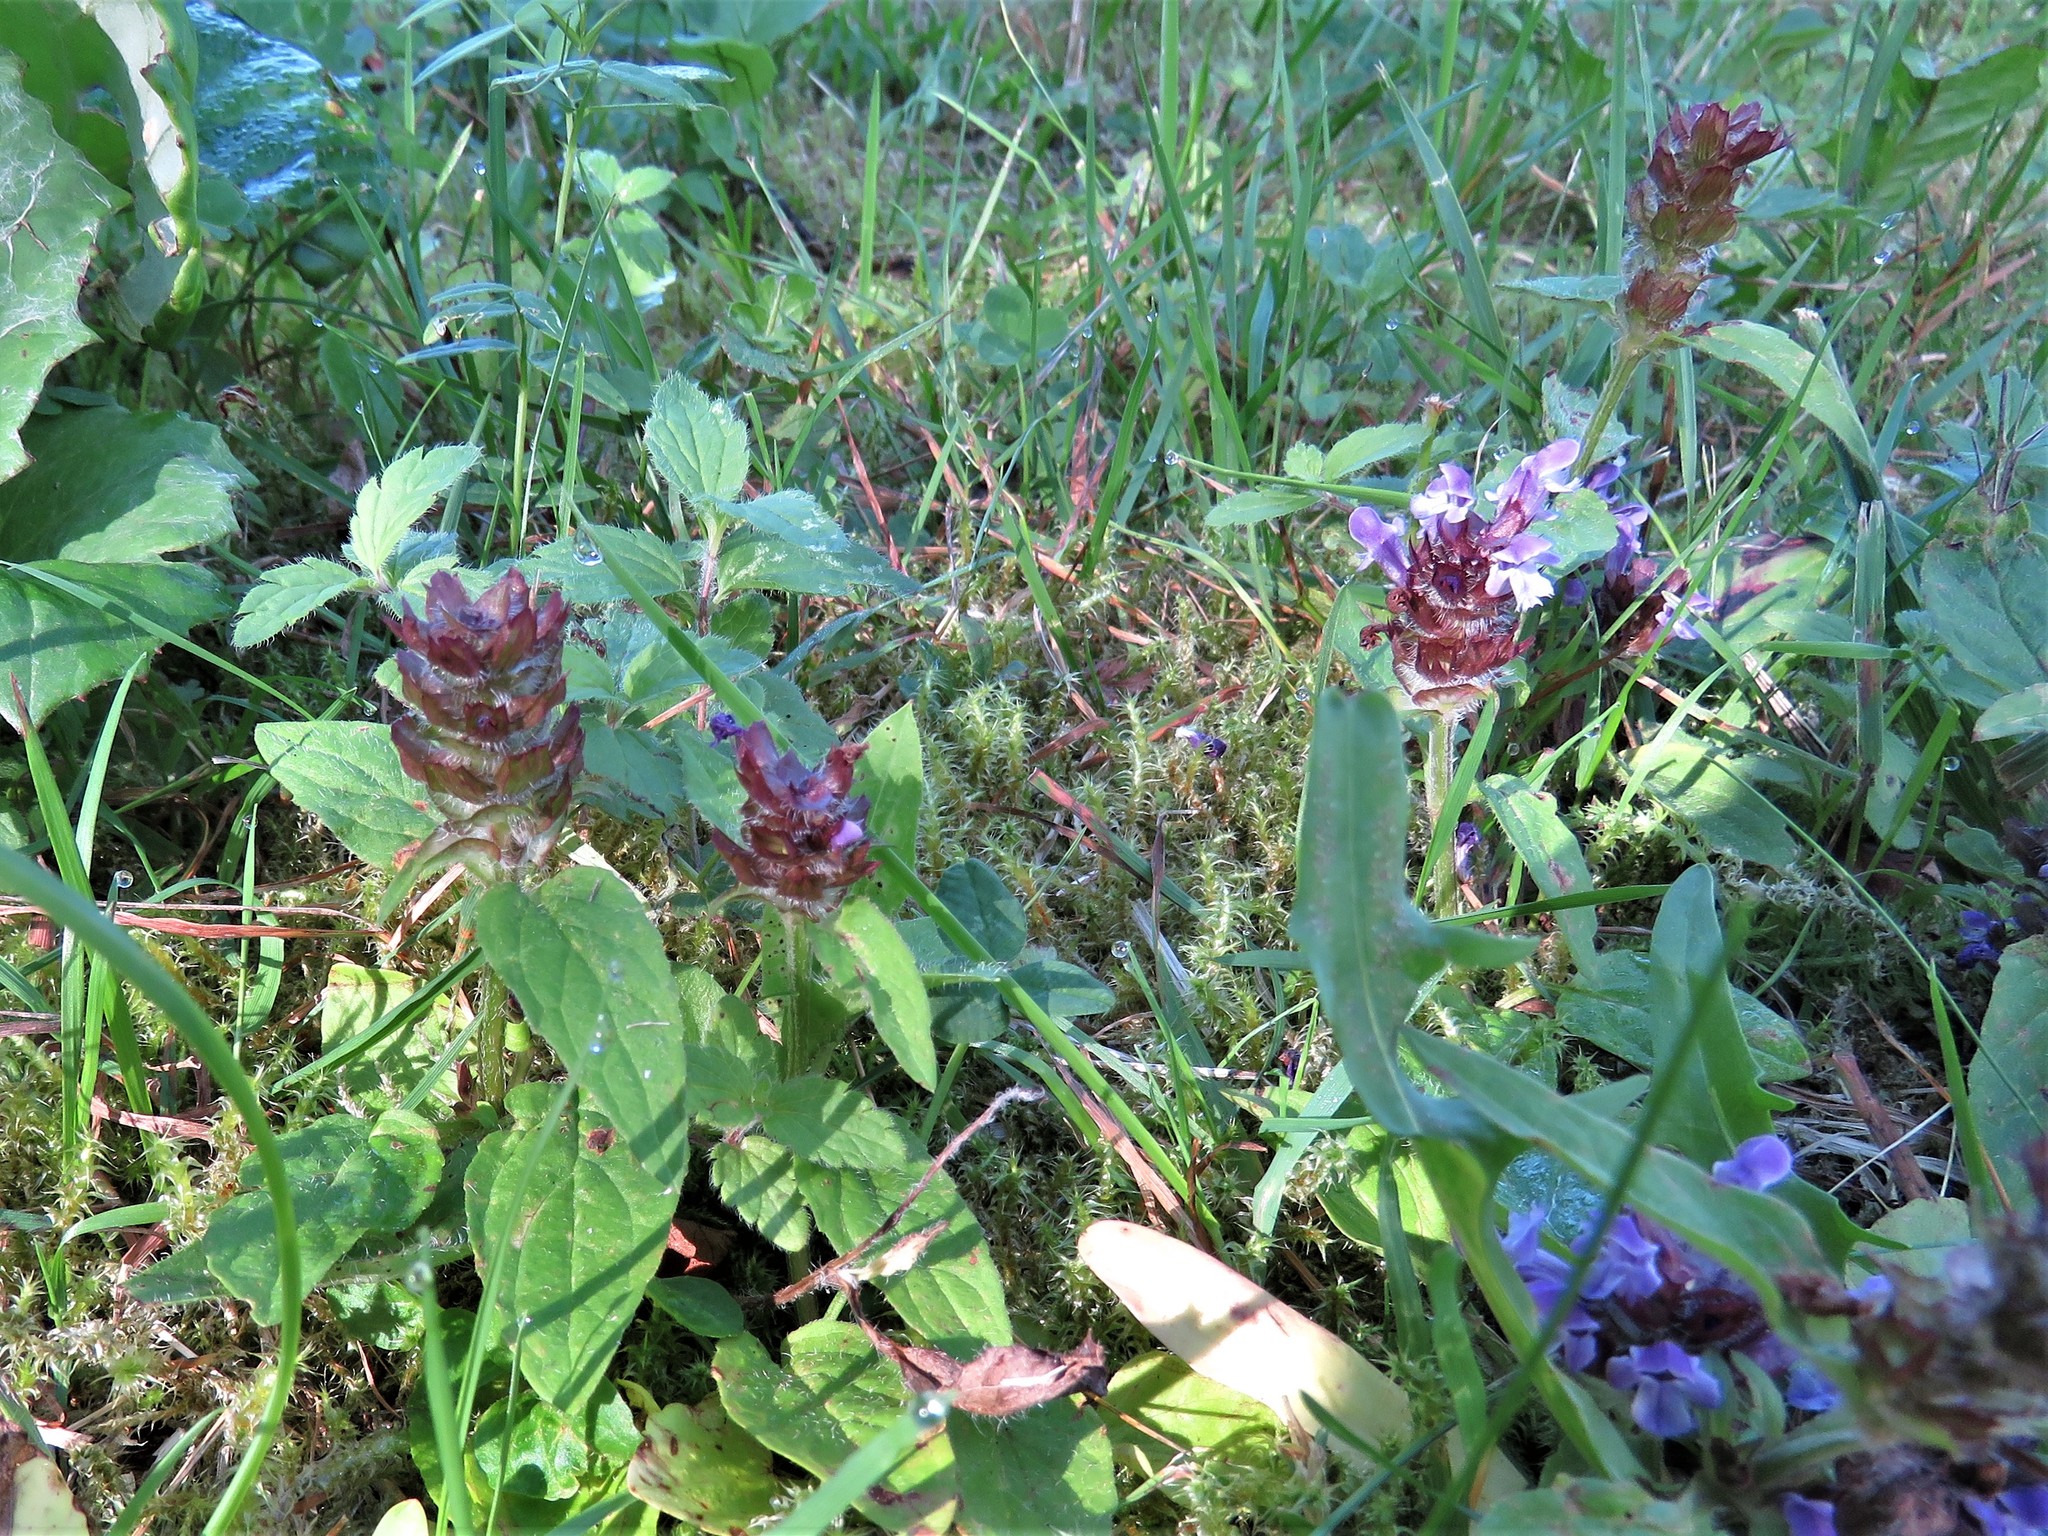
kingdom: Plantae
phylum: Tracheophyta
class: Magnoliopsida
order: Lamiales
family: Lamiaceae
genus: Prunella
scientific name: Prunella vulgaris
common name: Heal-all
